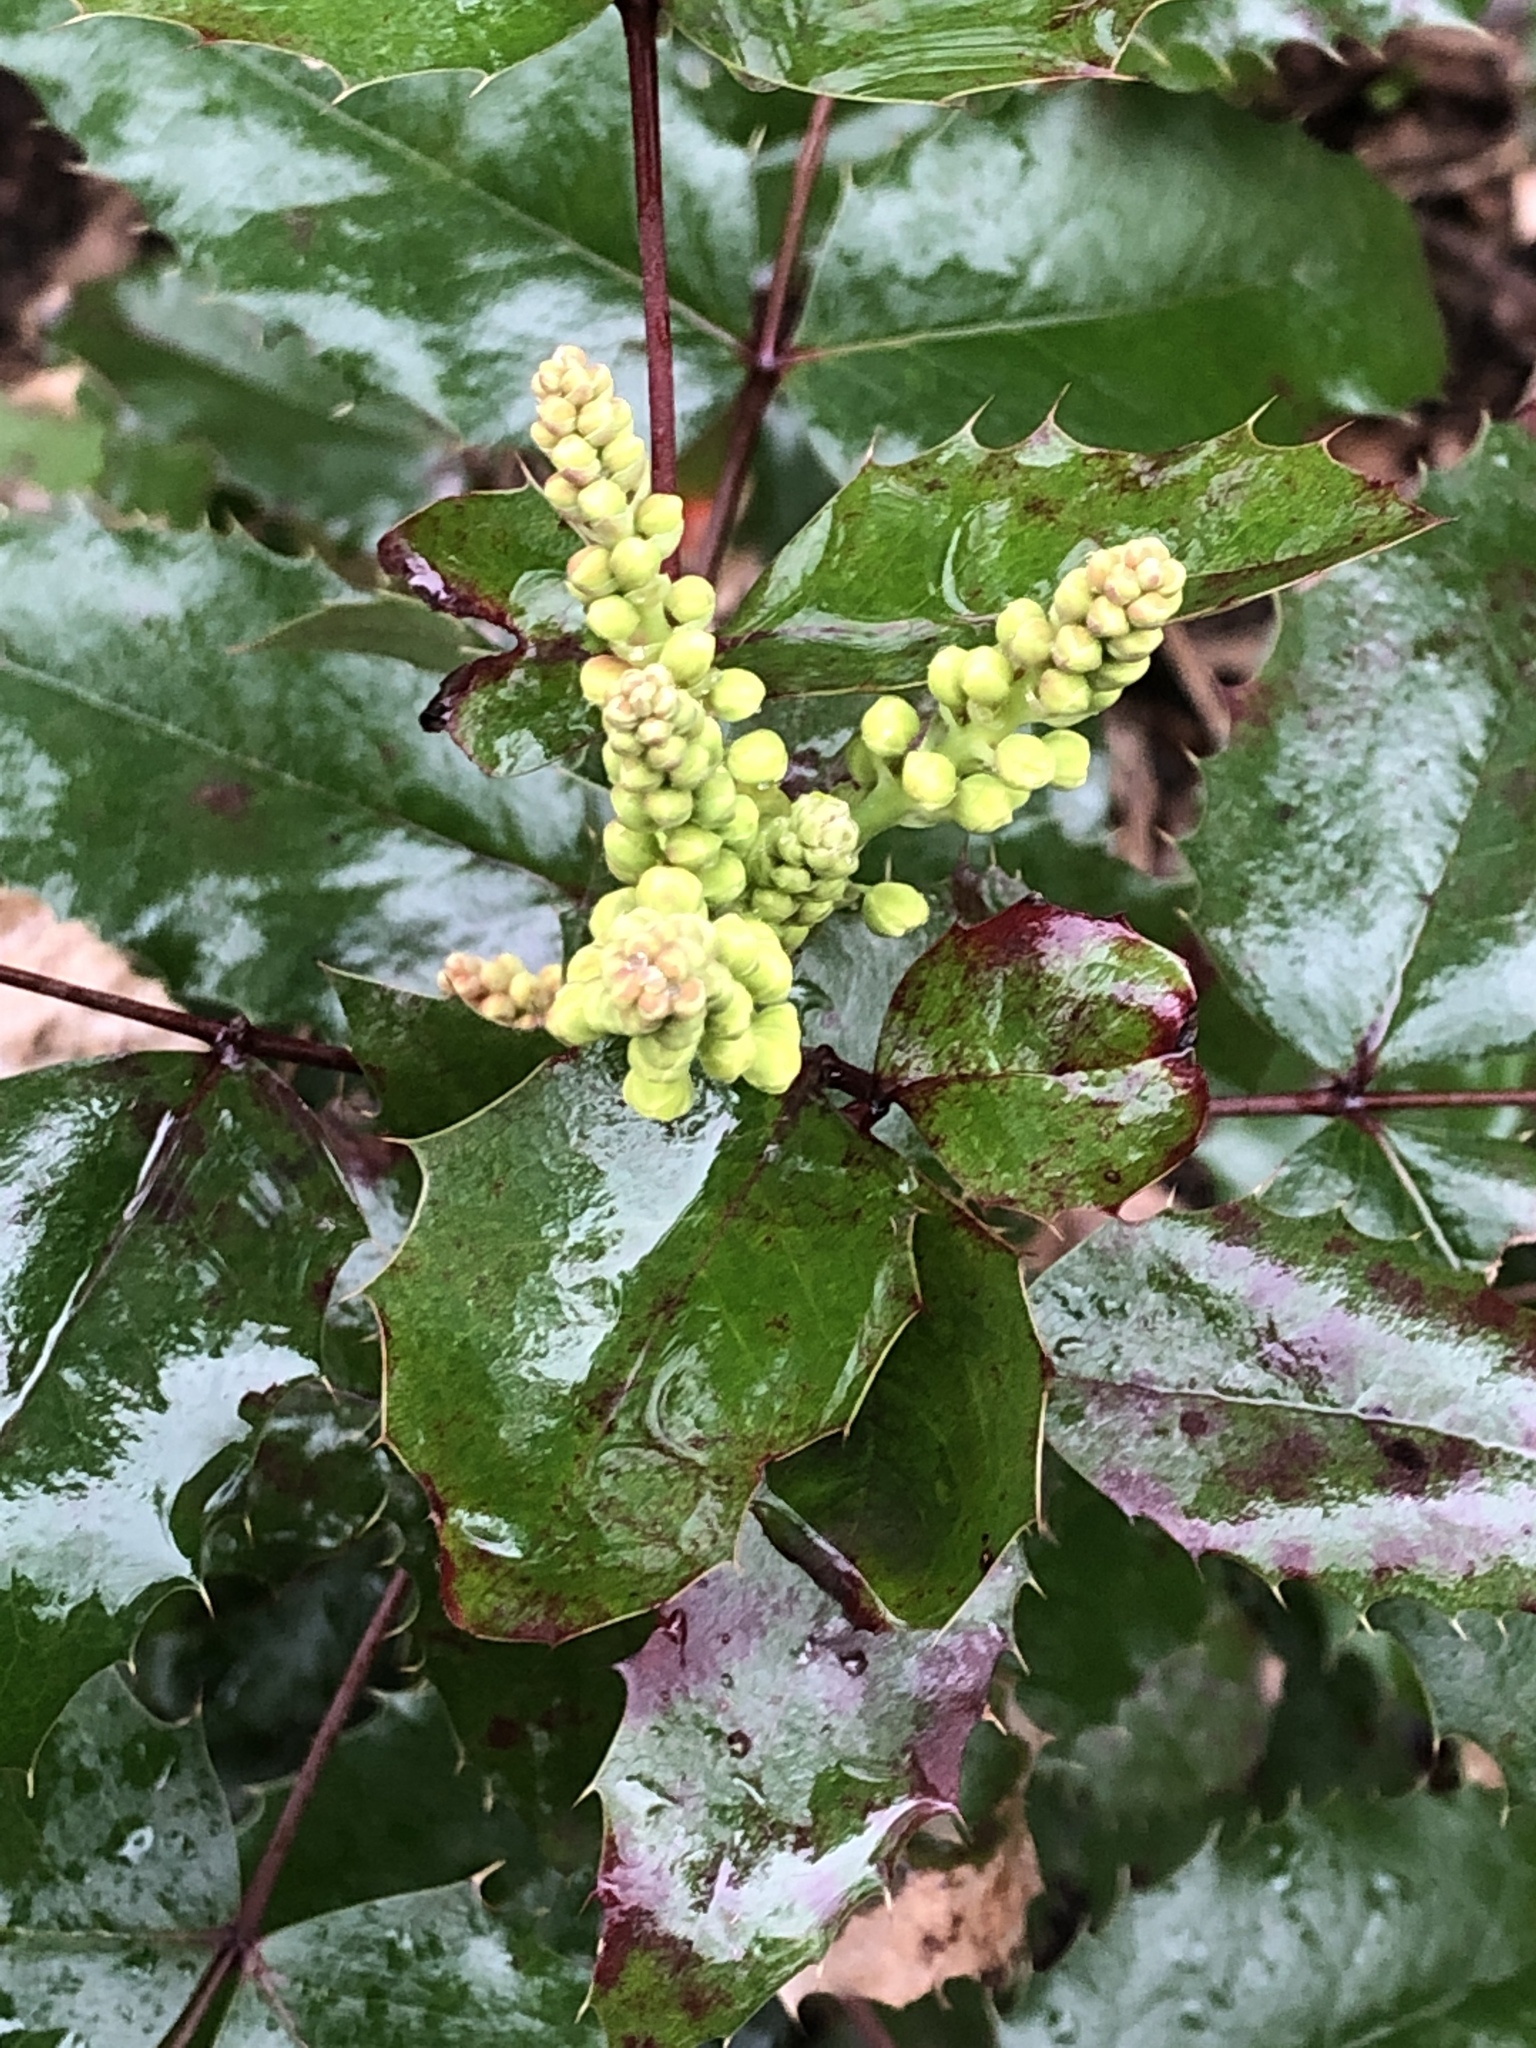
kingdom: Plantae
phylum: Tracheophyta
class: Magnoliopsida
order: Ranunculales
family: Berberidaceae
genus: Mahonia
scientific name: Mahonia aquifolium
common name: Oregon-grape
